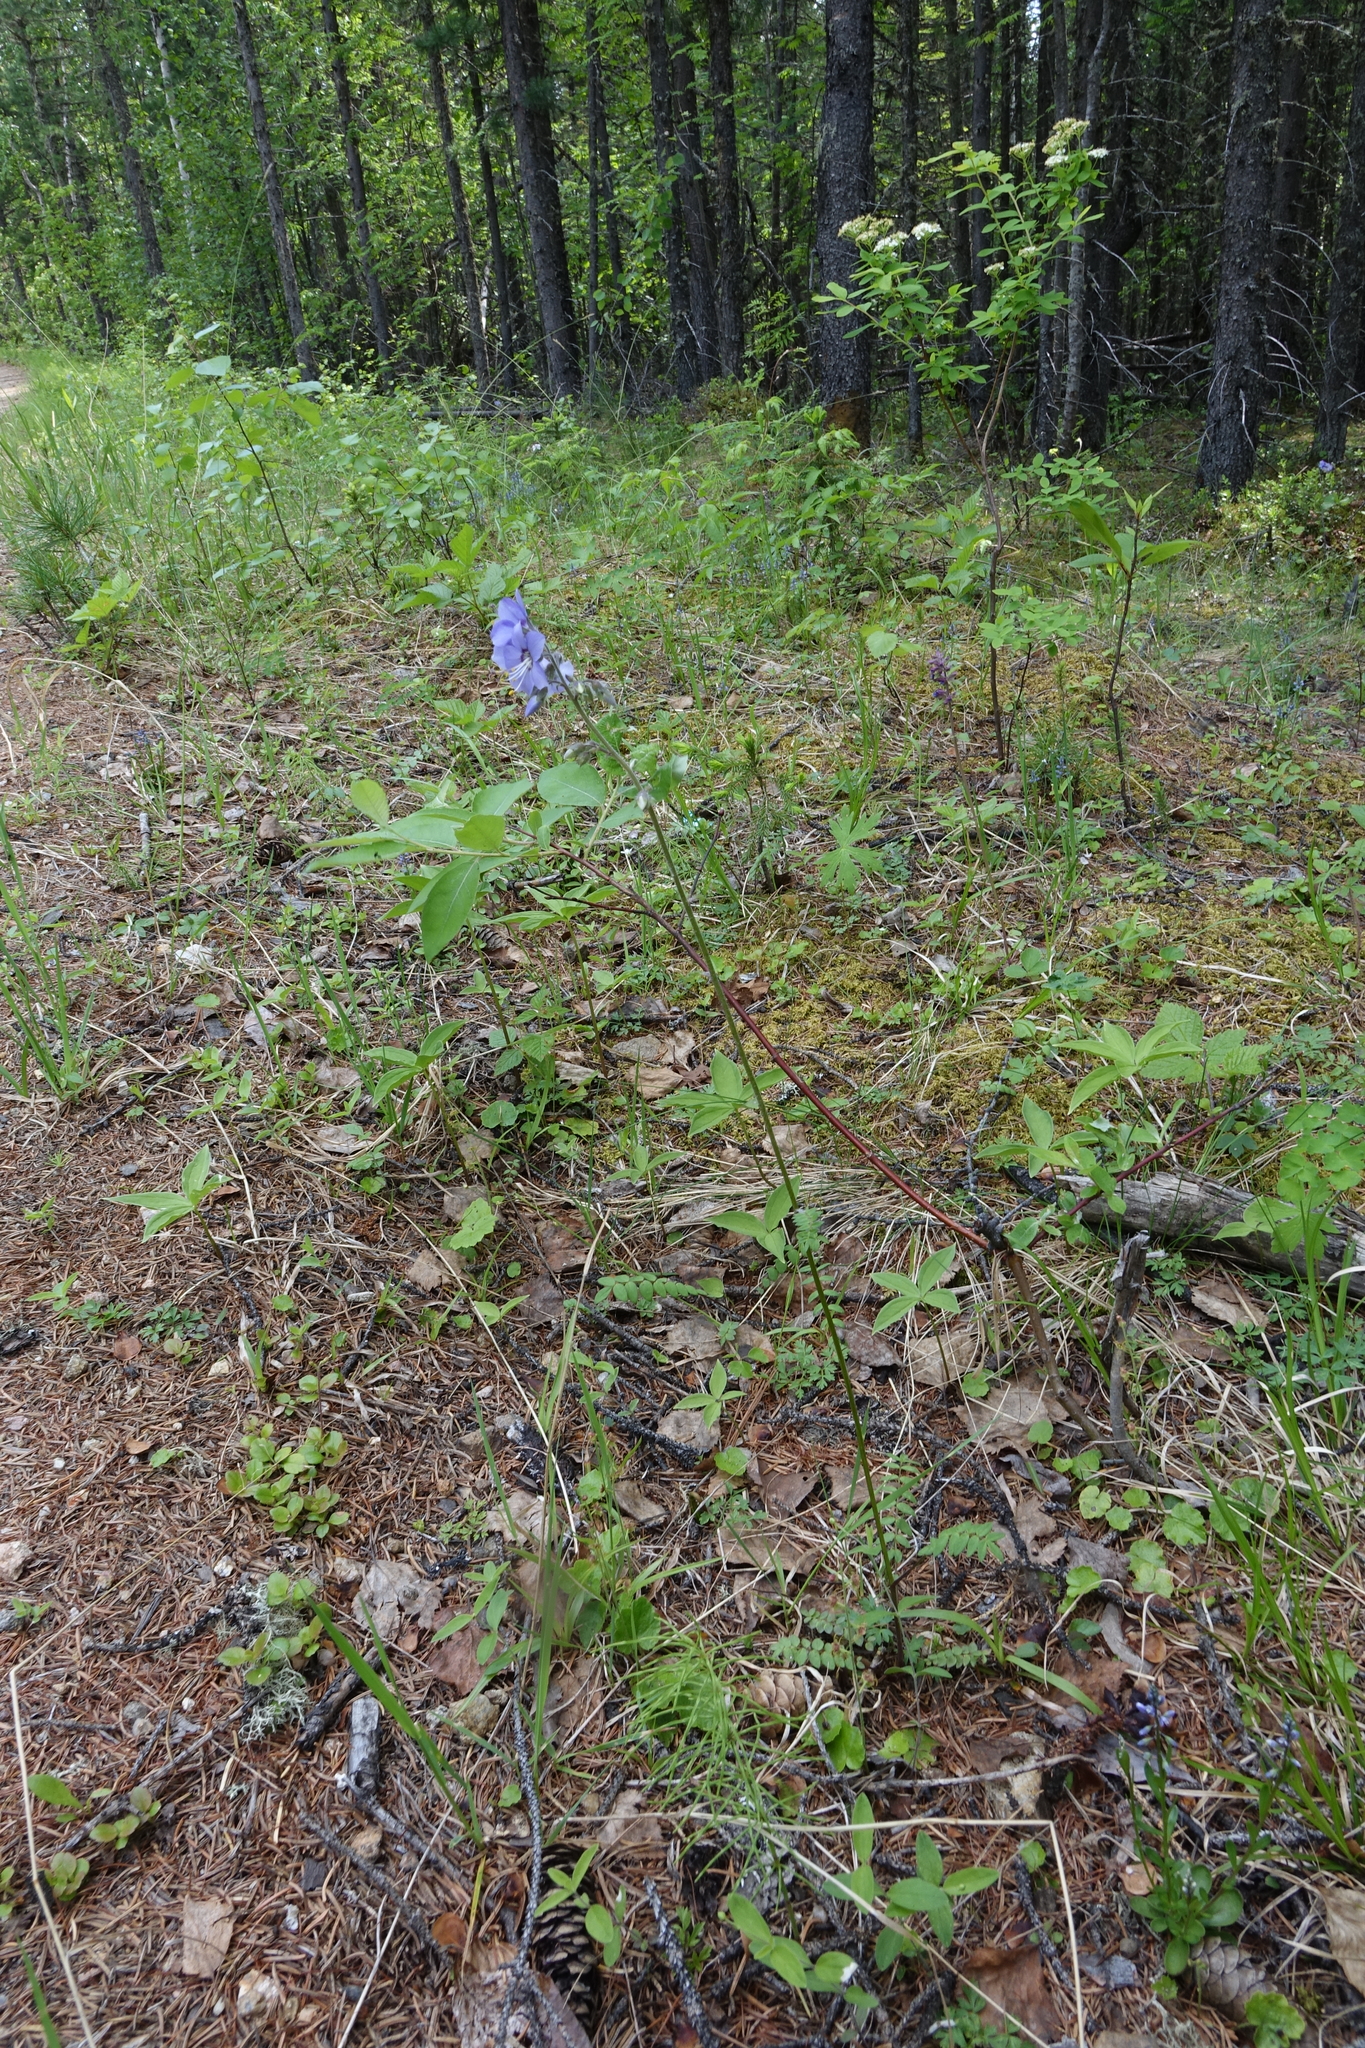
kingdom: Plantae
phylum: Tracheophyta
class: Magnoliopsida
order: Ericales
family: Polemoniaceae
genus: Polemonium
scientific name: Polemonium acutiflorum
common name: Tall jacob's-ladder
